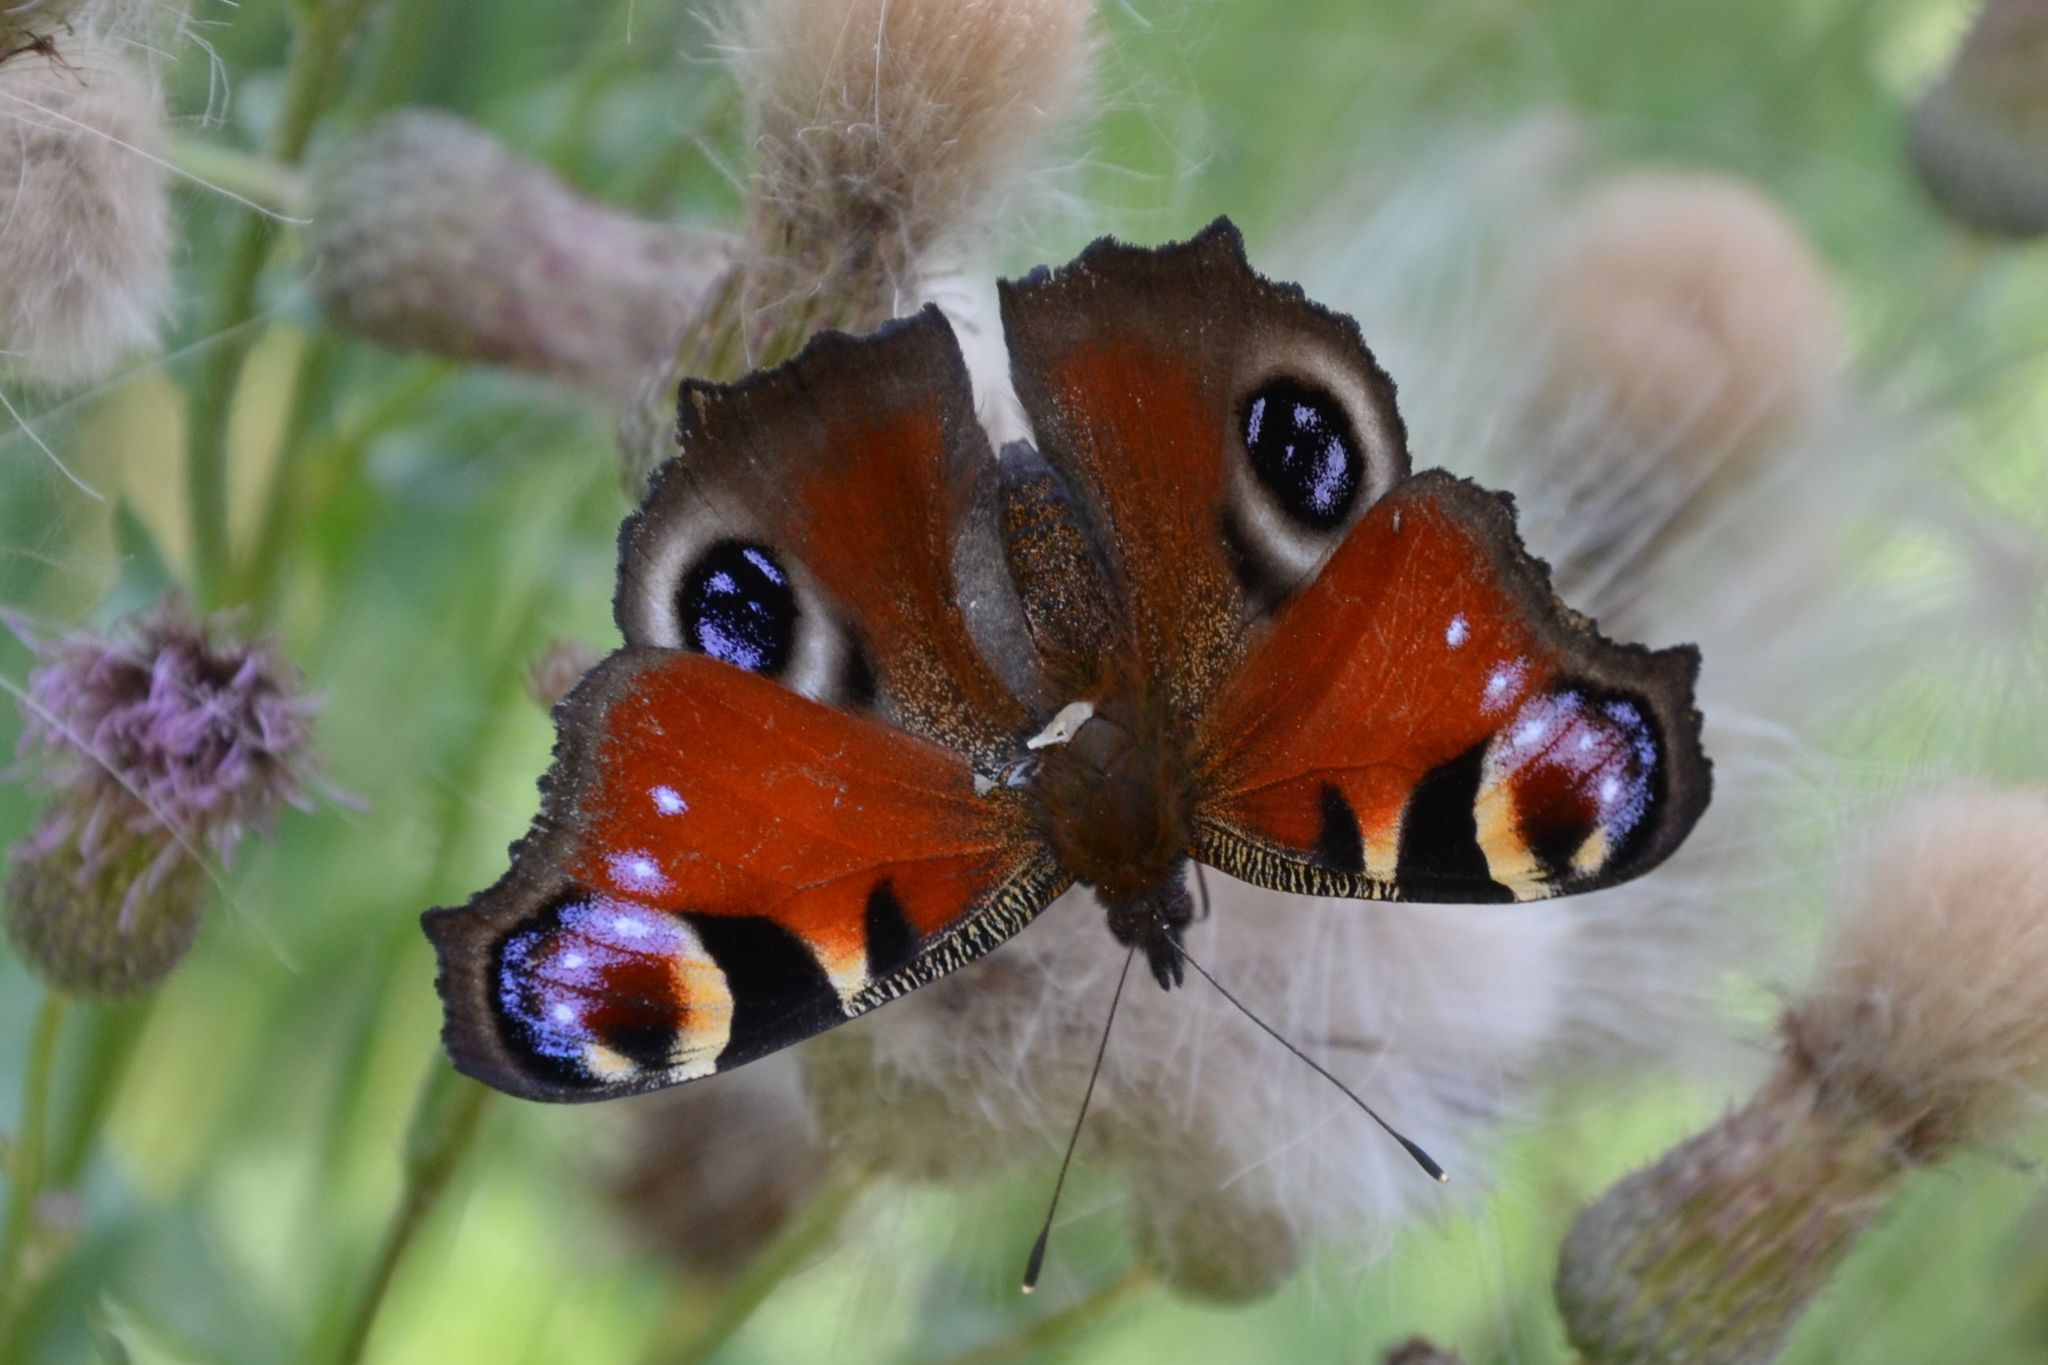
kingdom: Animalia
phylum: Arthropoda
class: Insecta
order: Lepidoptera
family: Nymphalidae
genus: Aglais
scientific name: Aglais io
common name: Peacock
